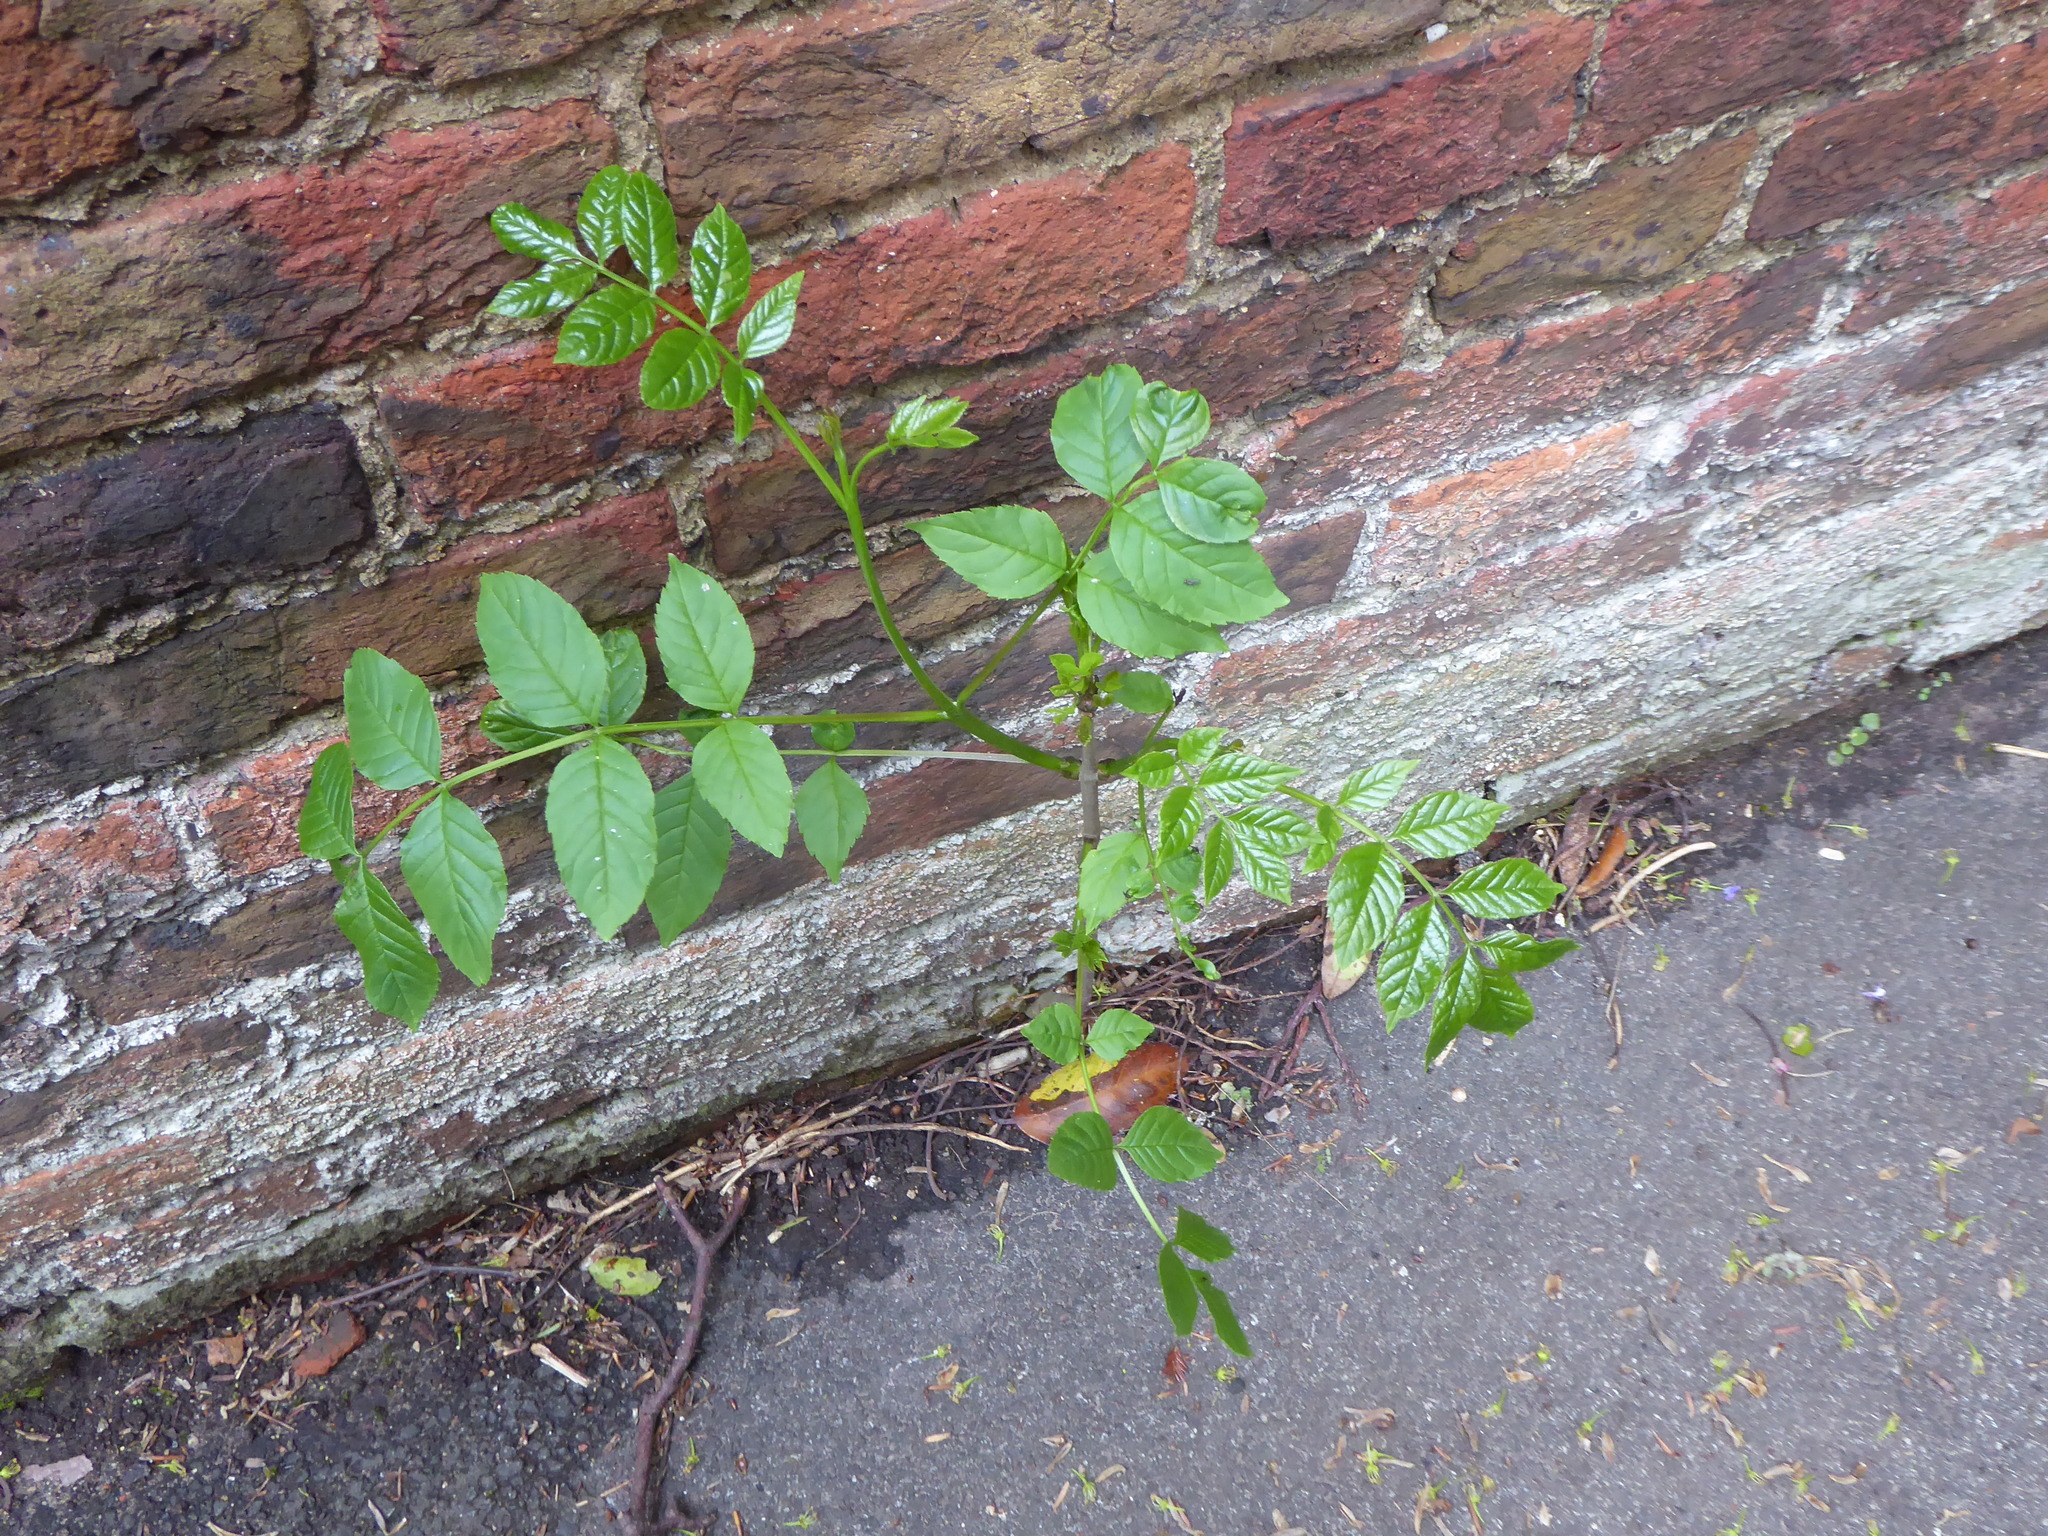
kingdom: Plantae
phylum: Tracheophyta
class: Magnoliopsida
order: Lamiales
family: Oleaceae
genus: Fraxinus
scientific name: Fraxinus excelsior
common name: European ash
